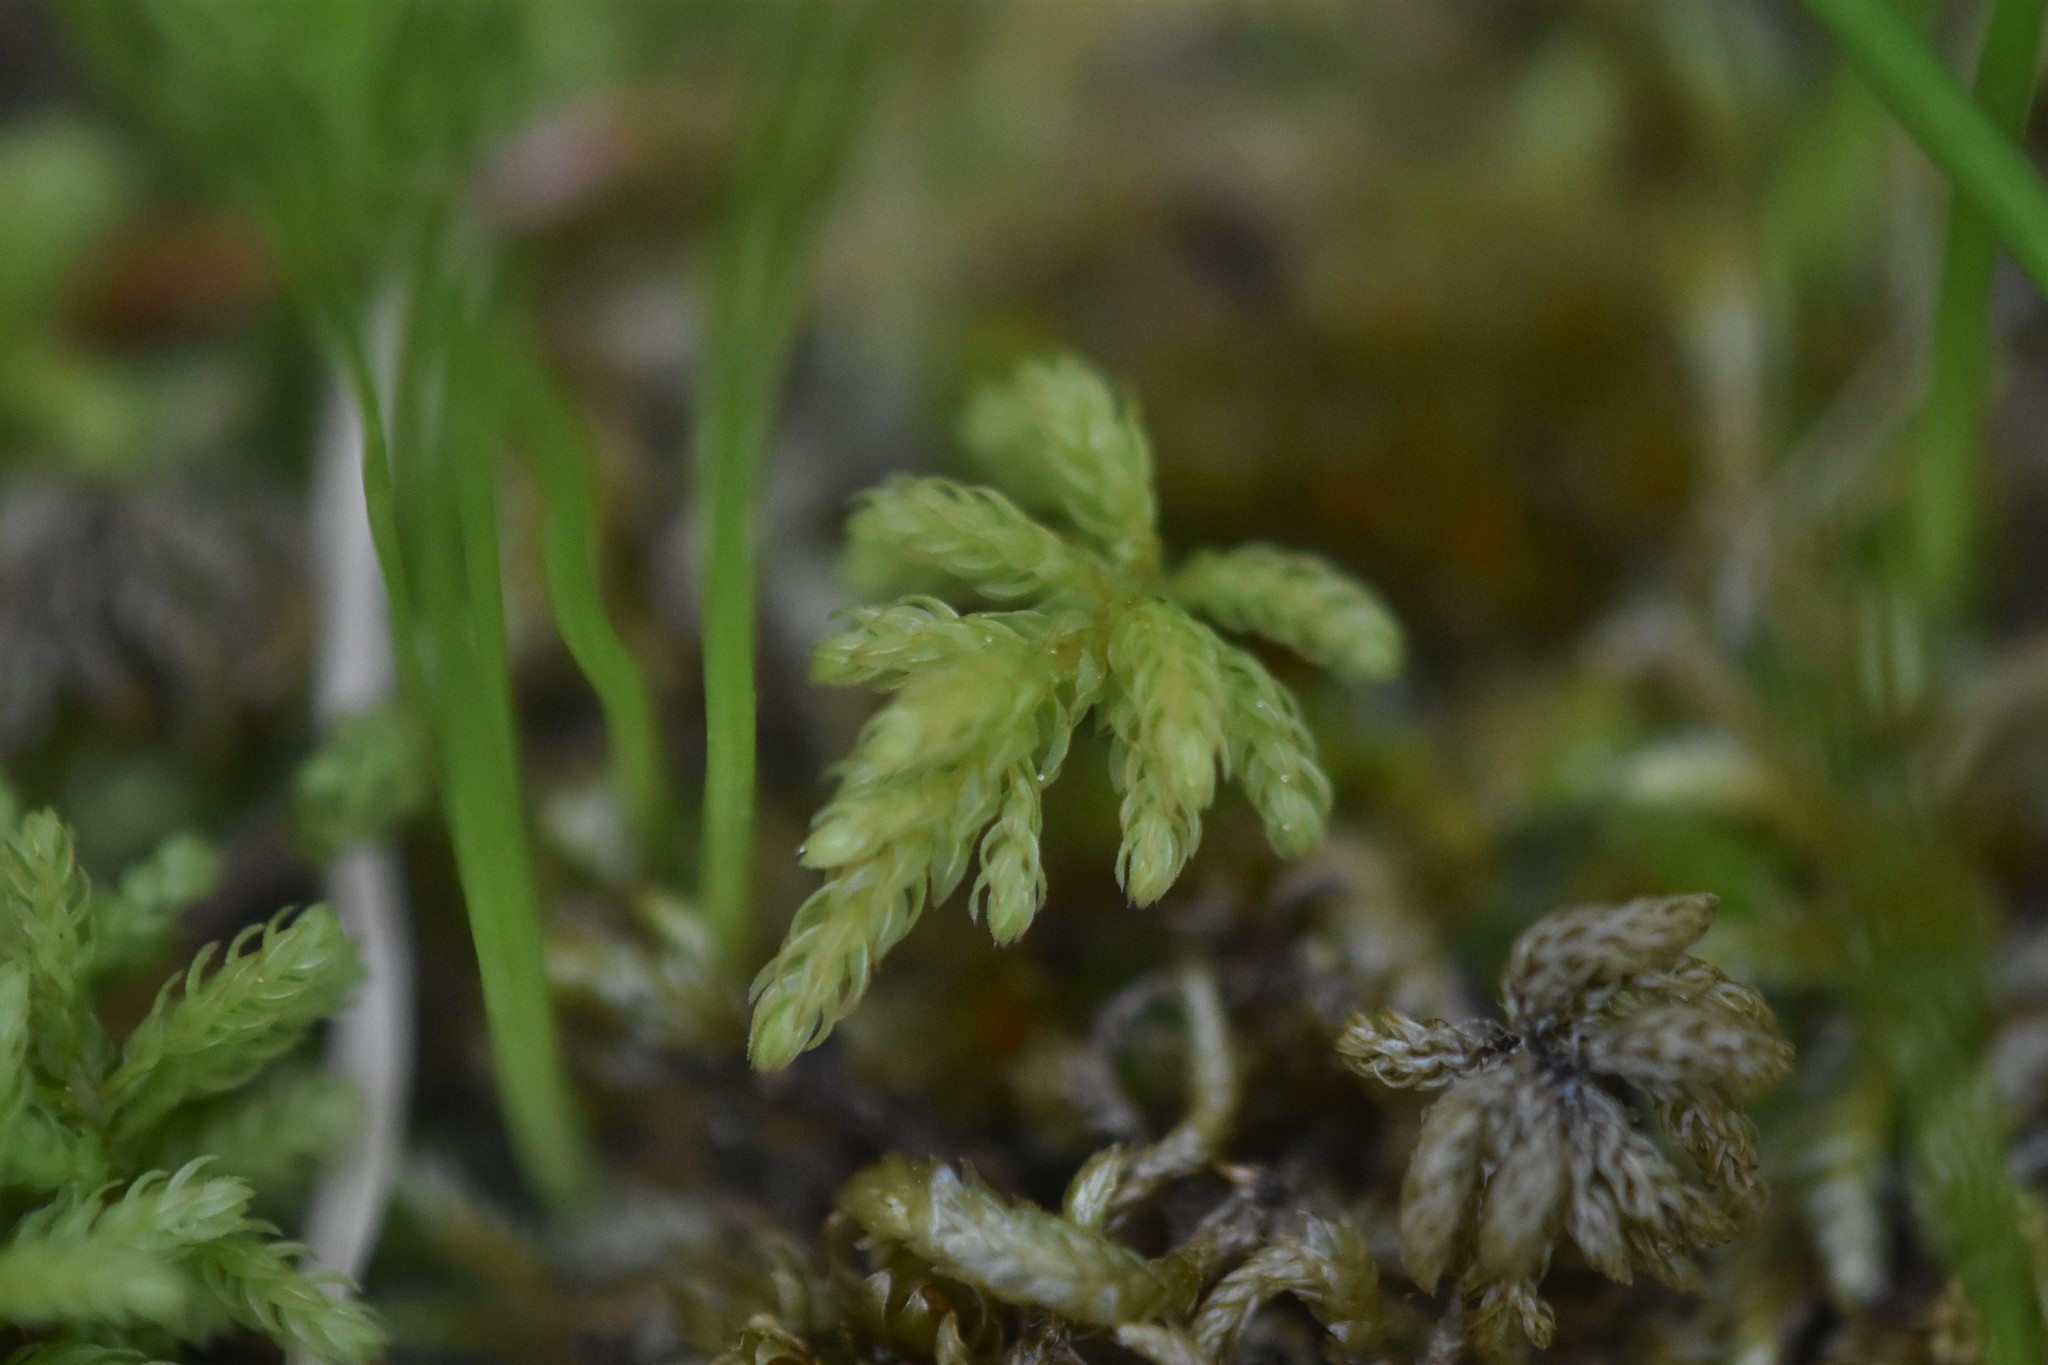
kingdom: Plantae
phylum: Bryophyta
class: Bryopsida
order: Bryales
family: Mniaceae
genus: Leucolepis
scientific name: Leucolepis acanthoneura
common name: Leucolepis umbrella moss
